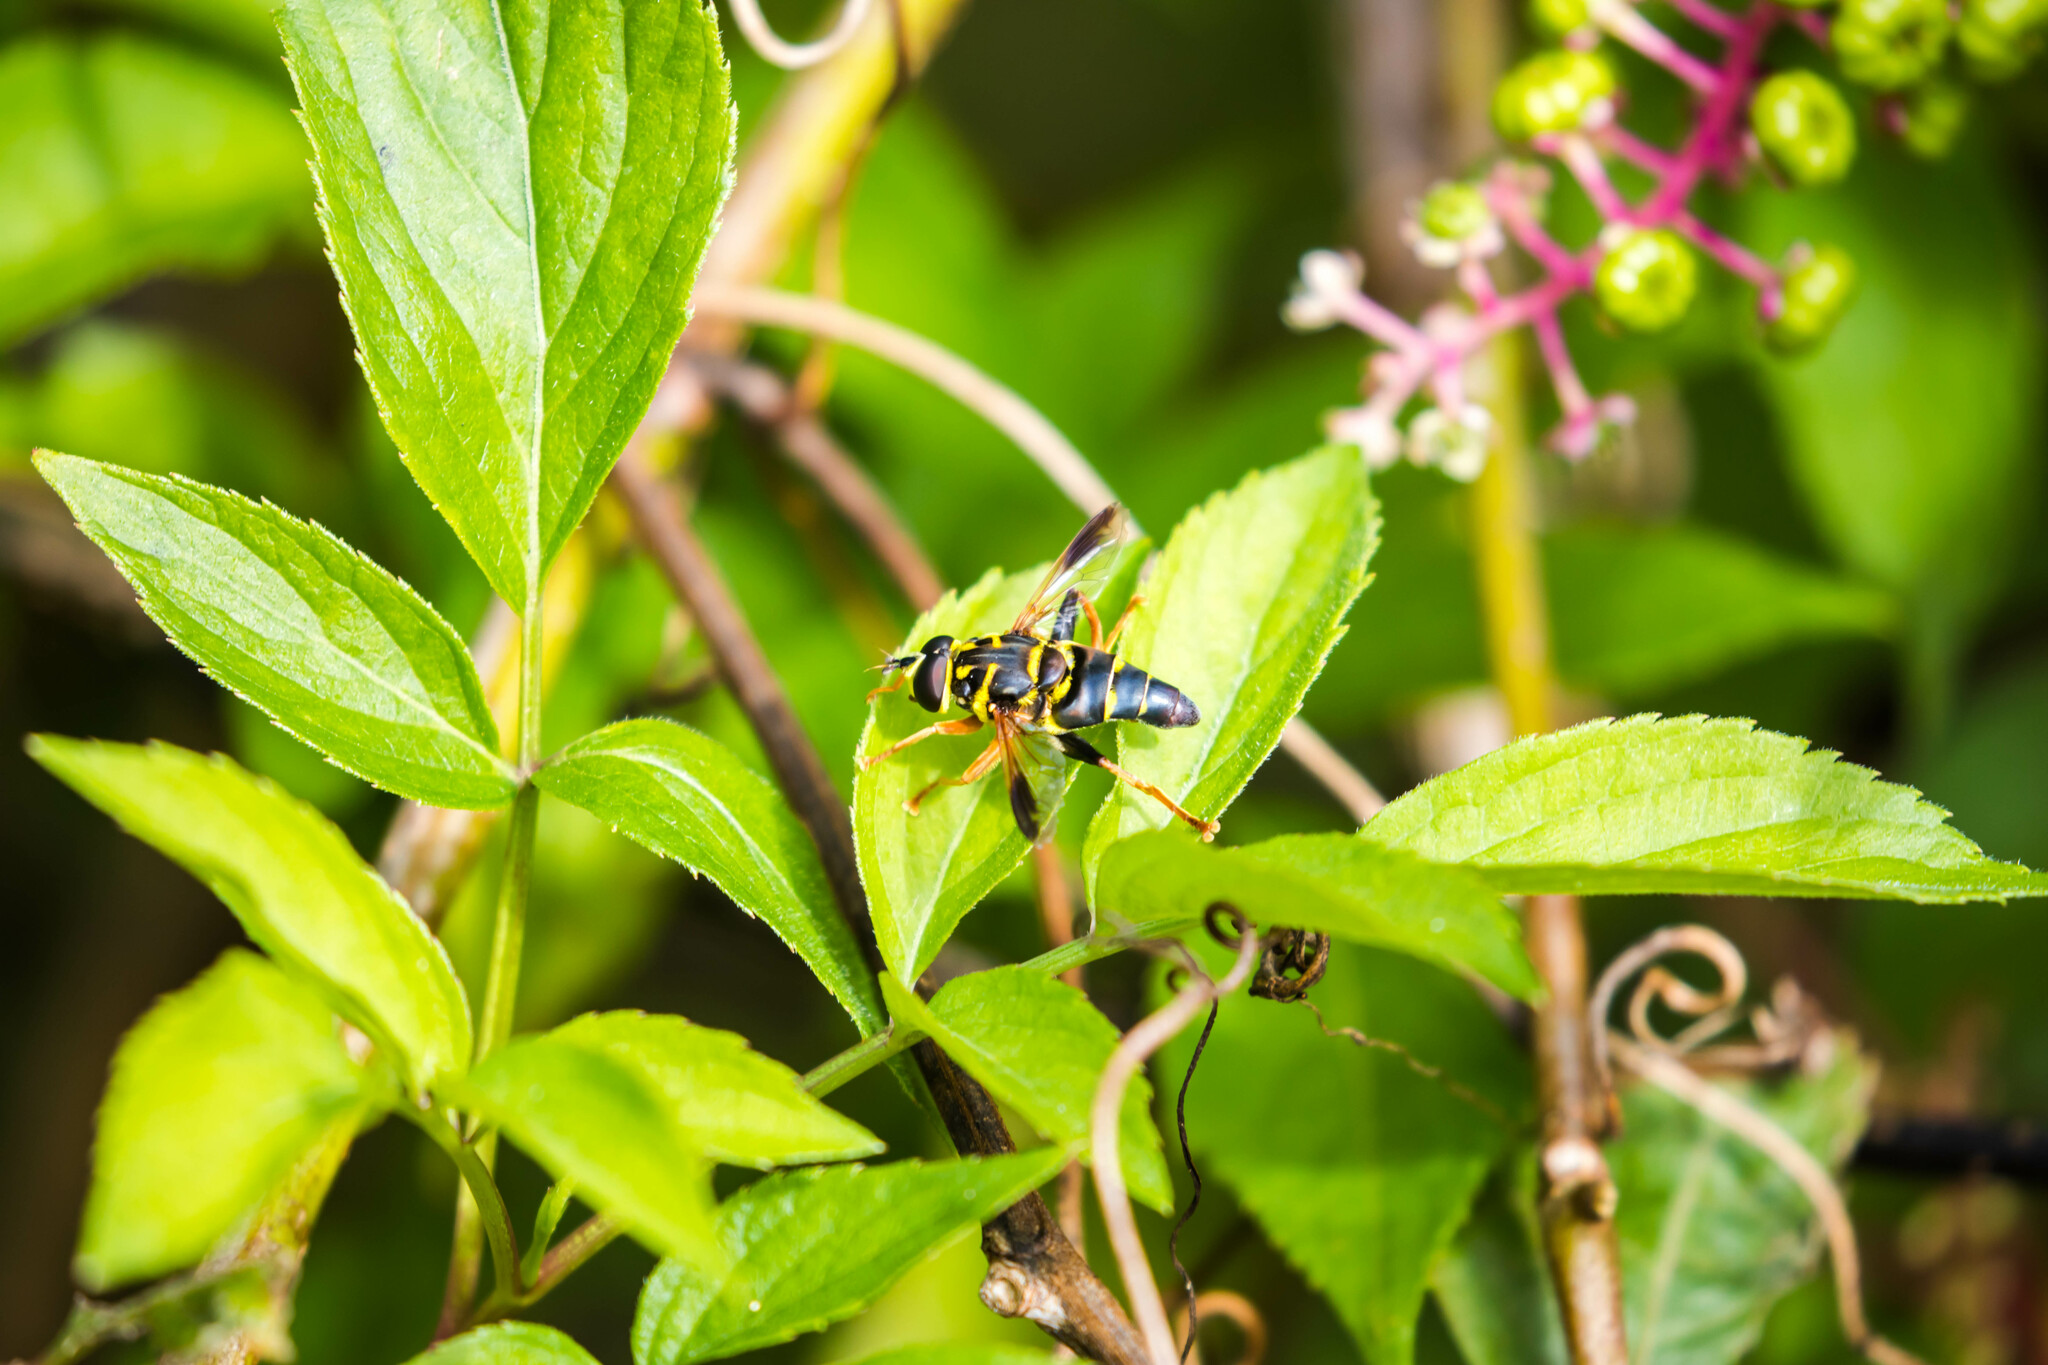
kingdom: Animalia
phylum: Arthropoda
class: Insecta
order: Diptera
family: Syrphidae
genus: Meromacrus
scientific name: Meromacrus acutus
